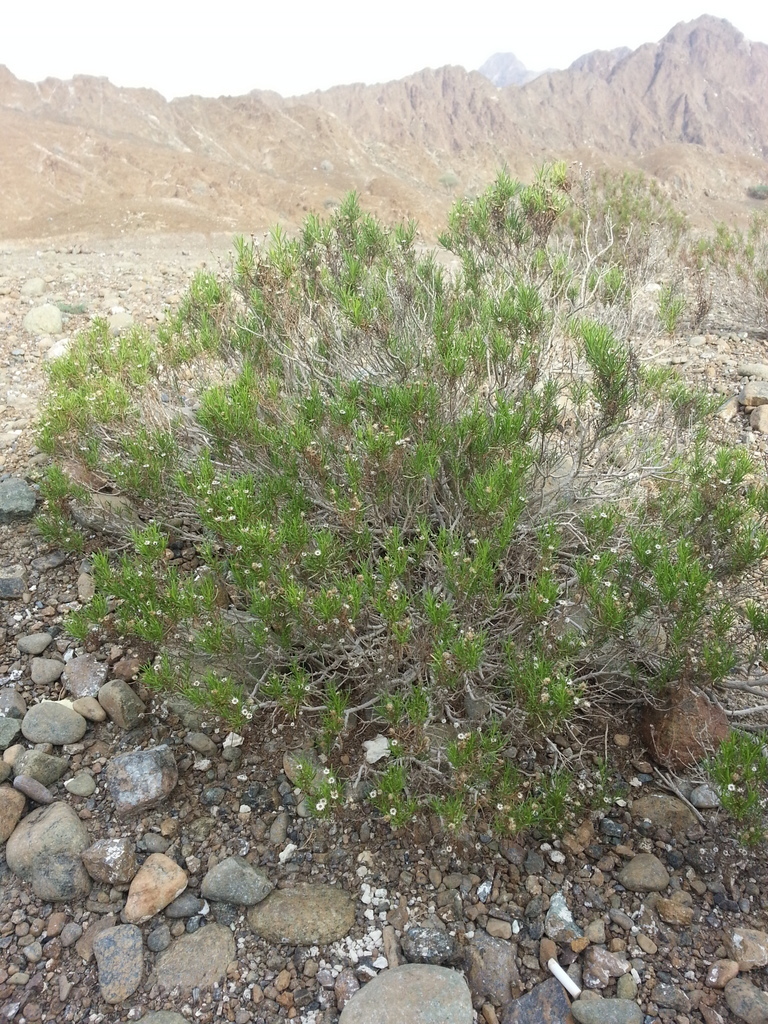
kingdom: Plantae
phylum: Tracheophyta
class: Magnoliopsida
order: Asterales
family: Asteraceae
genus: Pulicaria
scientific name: Pulicaria glutinosa
